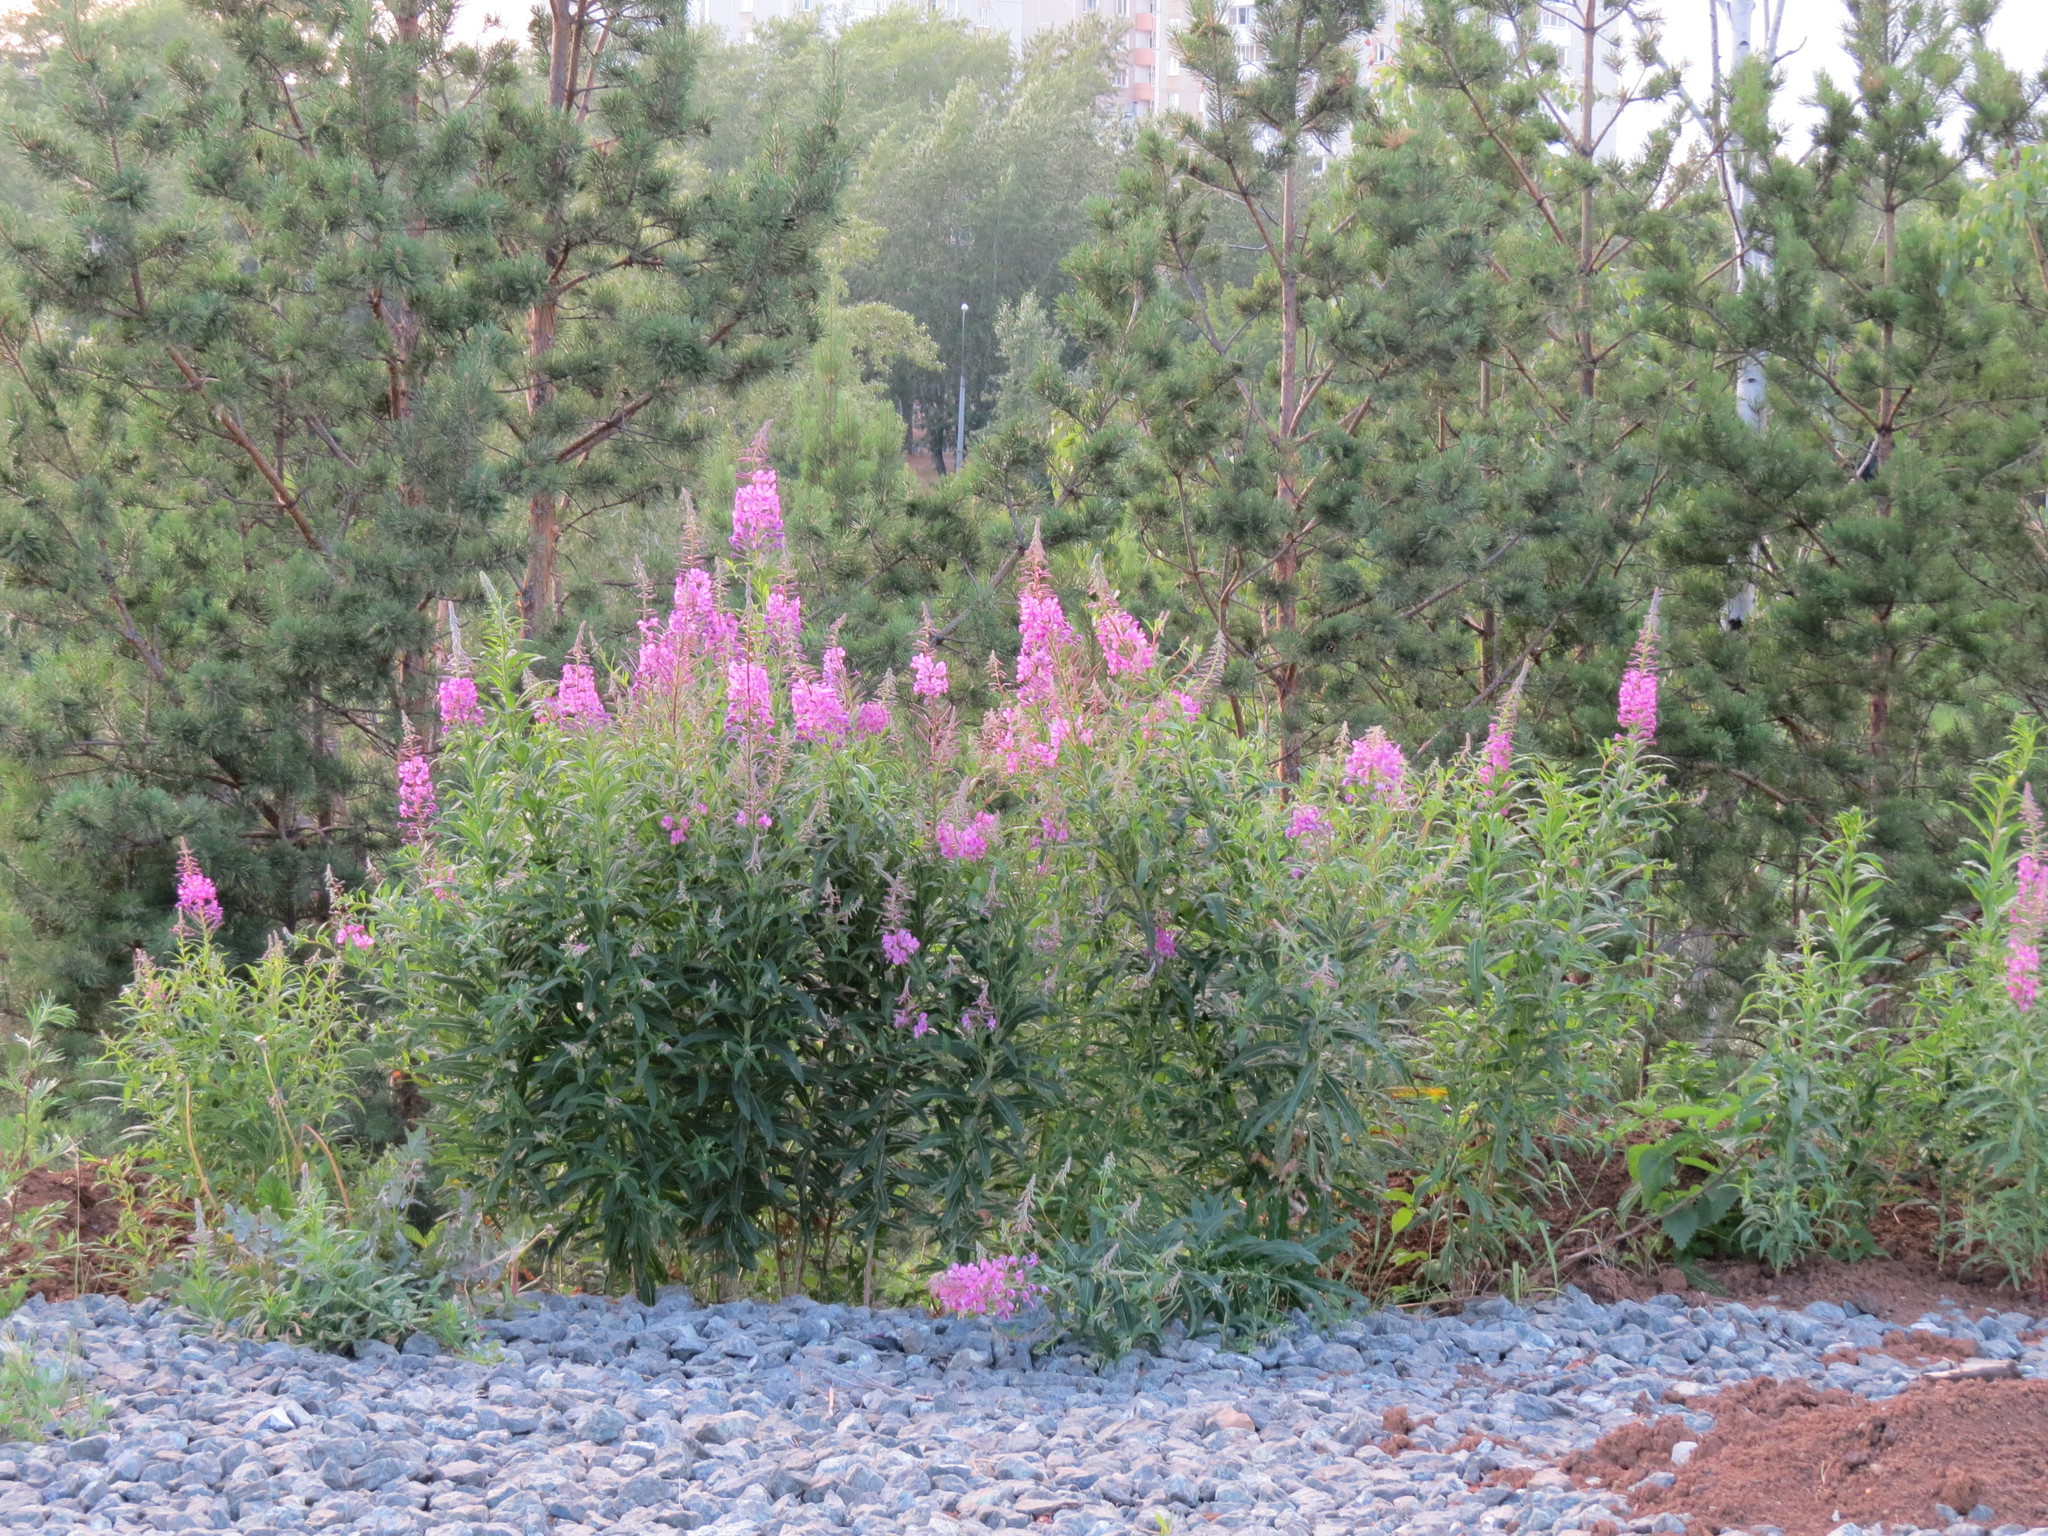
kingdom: Plantae
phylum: Tracheophyta
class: Magnoliopsida
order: Myrtales
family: Onagraceae
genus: Chamaenerion
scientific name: Chamaenerion angustifolium
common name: Fireweed
